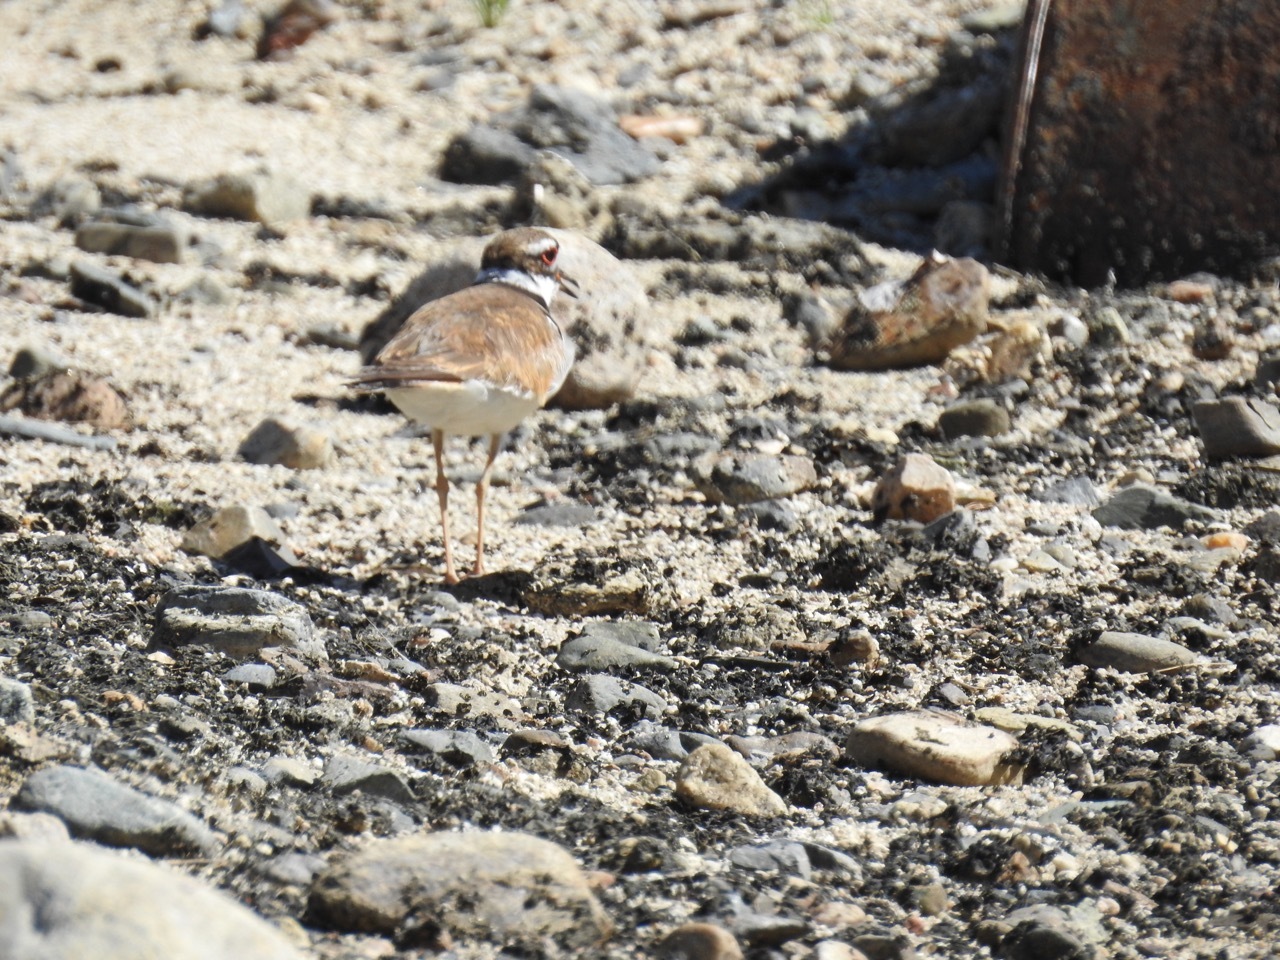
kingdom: Animalia
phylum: Chordata
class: Aves
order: Charadriiformes
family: Charadriidae
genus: Charadrius
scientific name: Charadrius vociferus
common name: Killdeer
